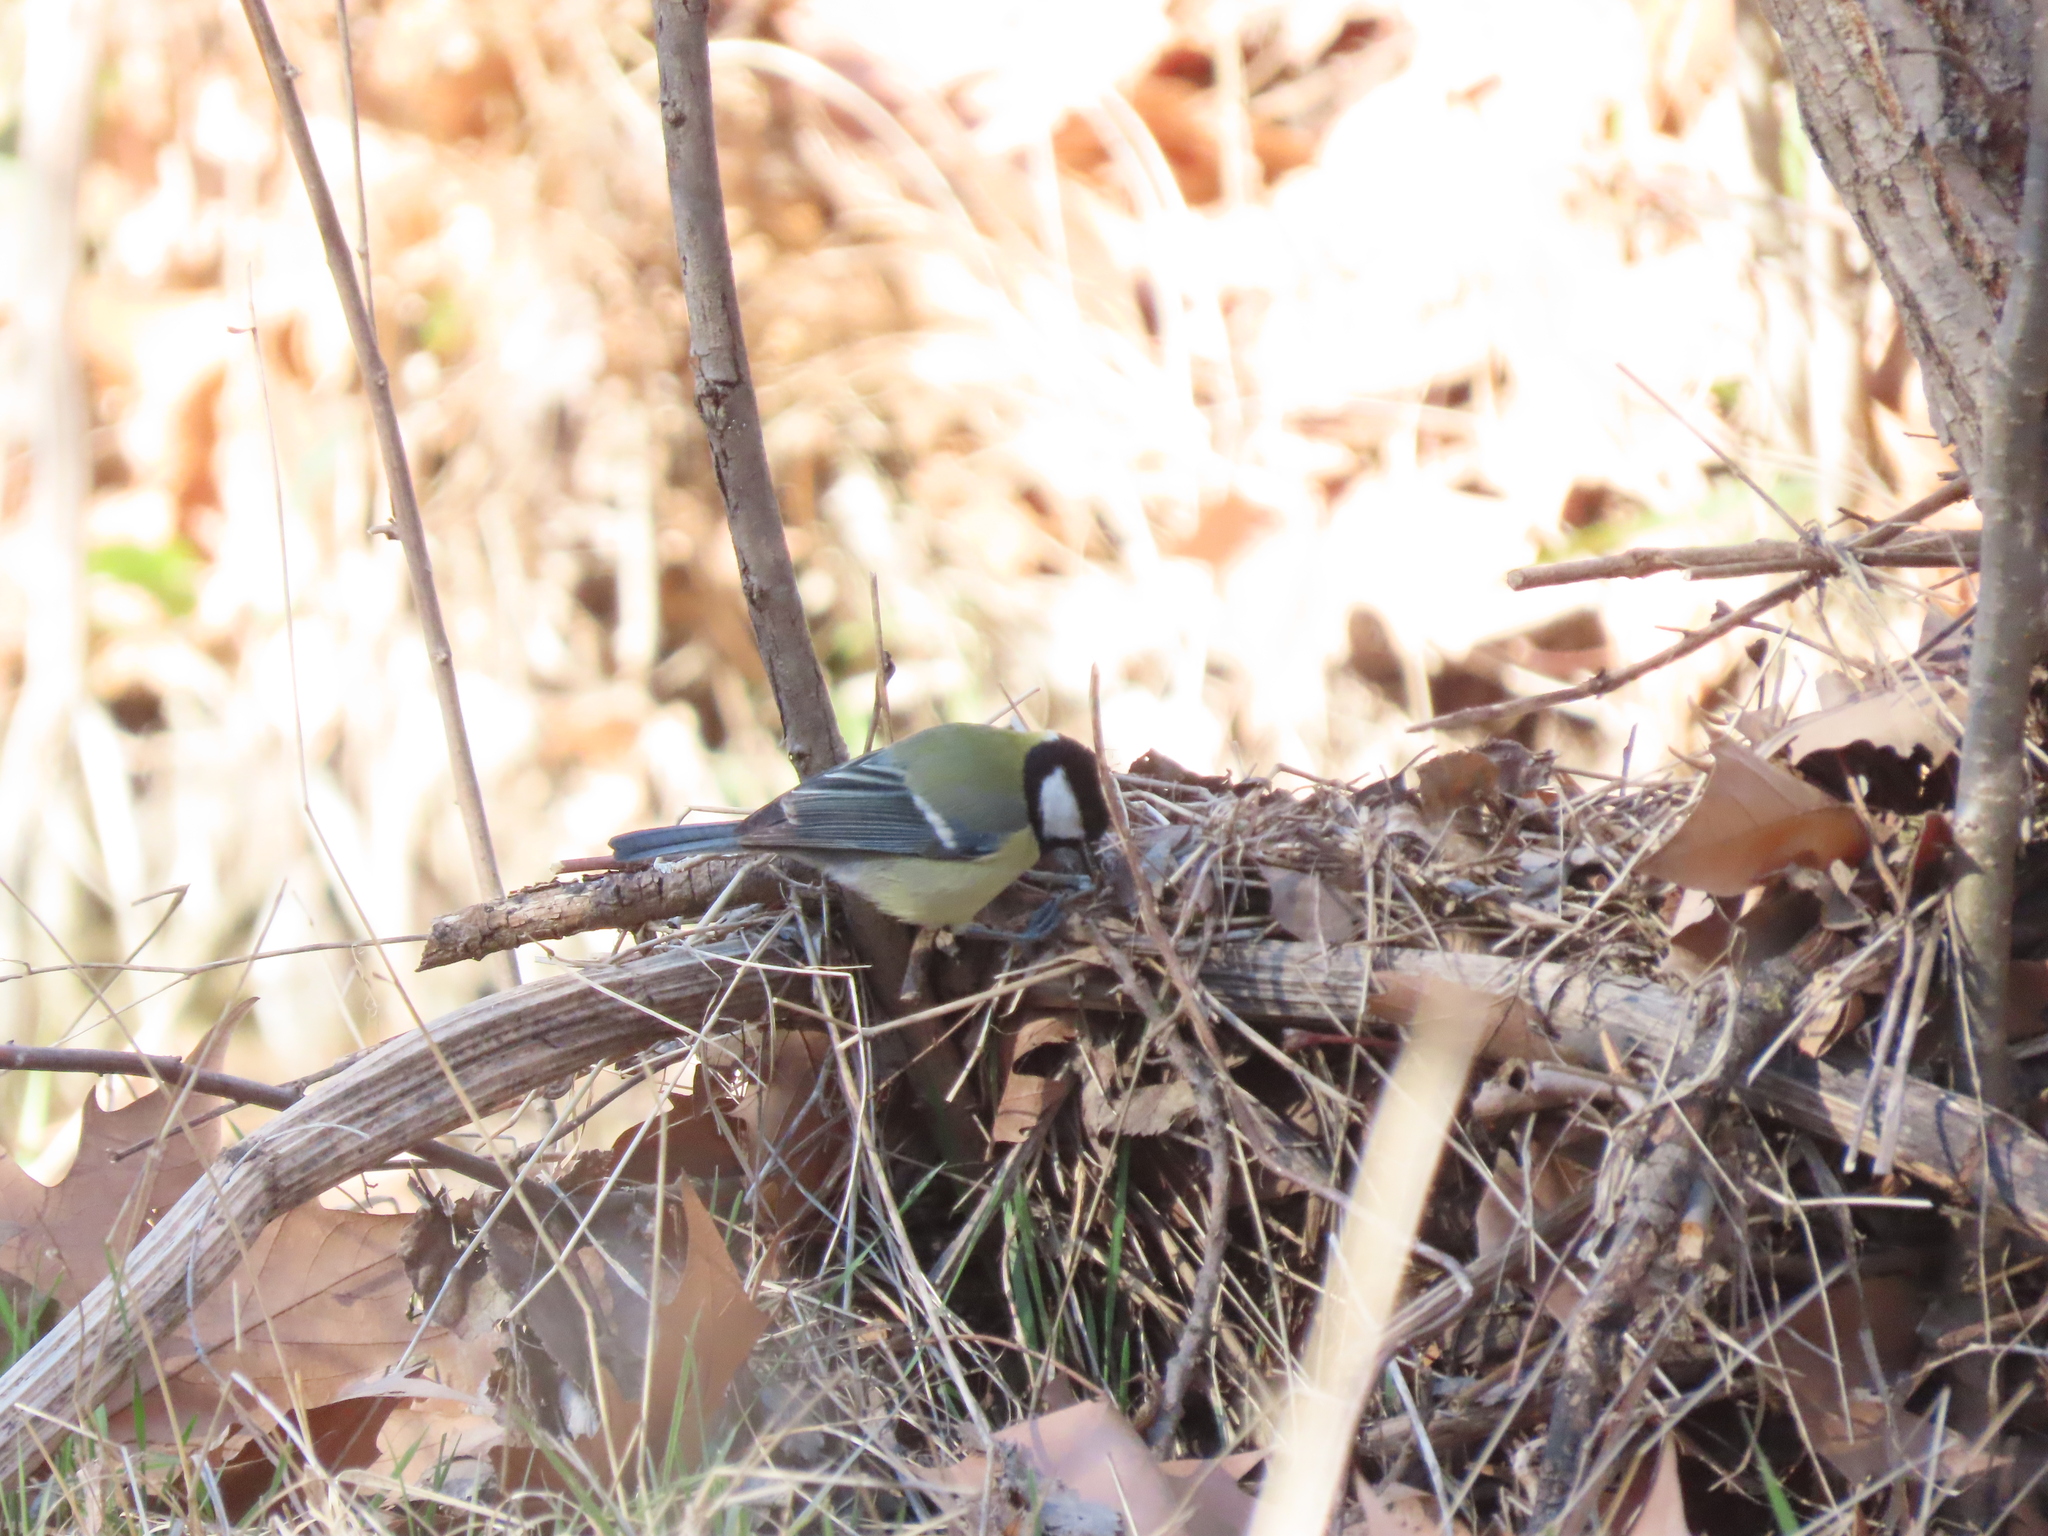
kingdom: Animalia
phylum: Chordata
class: Aves
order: Passeriformes
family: Paridae
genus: Parus
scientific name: Parus major
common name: Great tit
